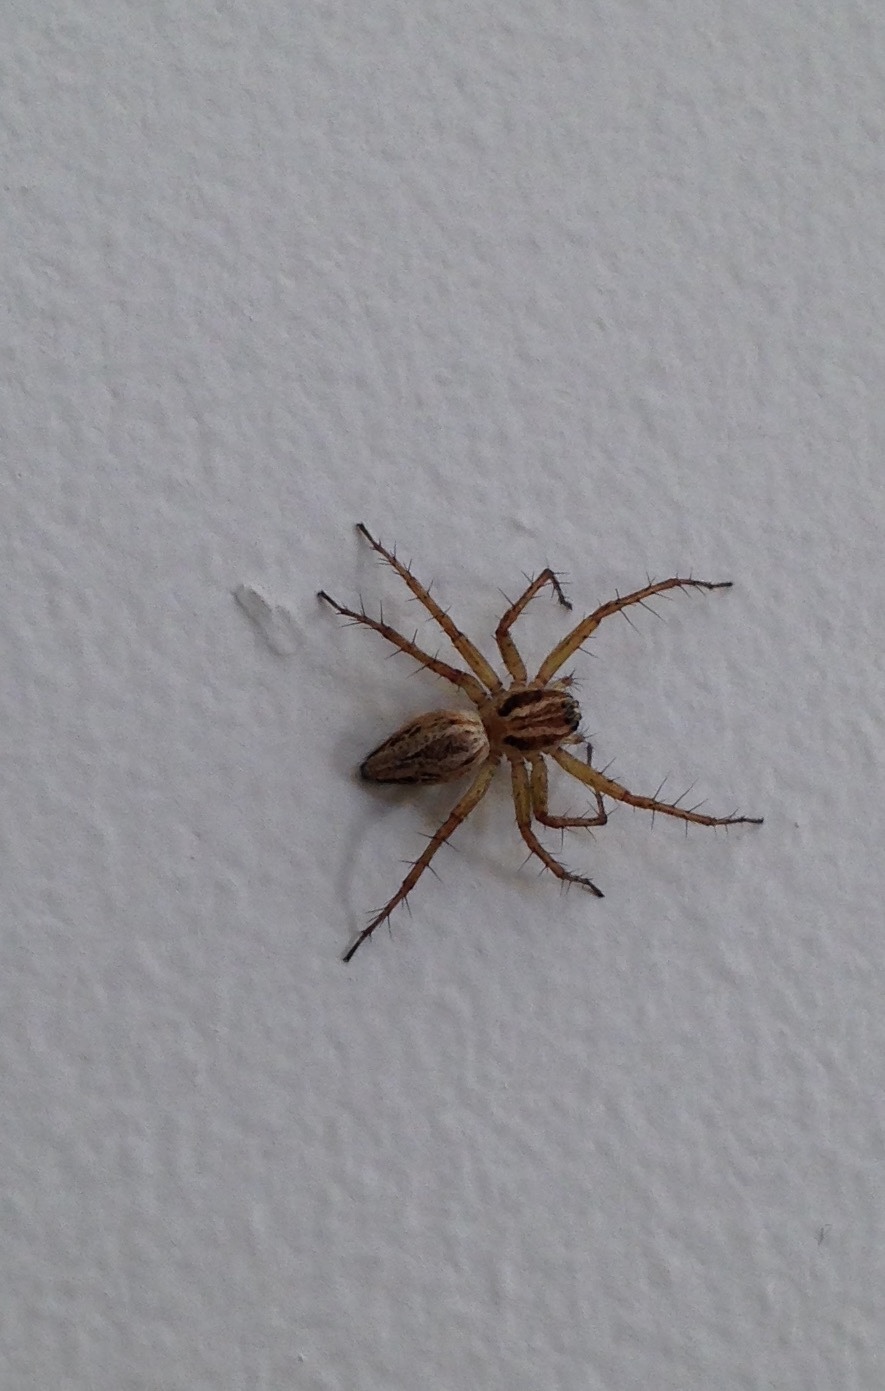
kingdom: Animalia
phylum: Arthropoda
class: Arachnida
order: Araneae
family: Oxyopidae
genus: Oxyopes
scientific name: Oxyopes gracilipes
